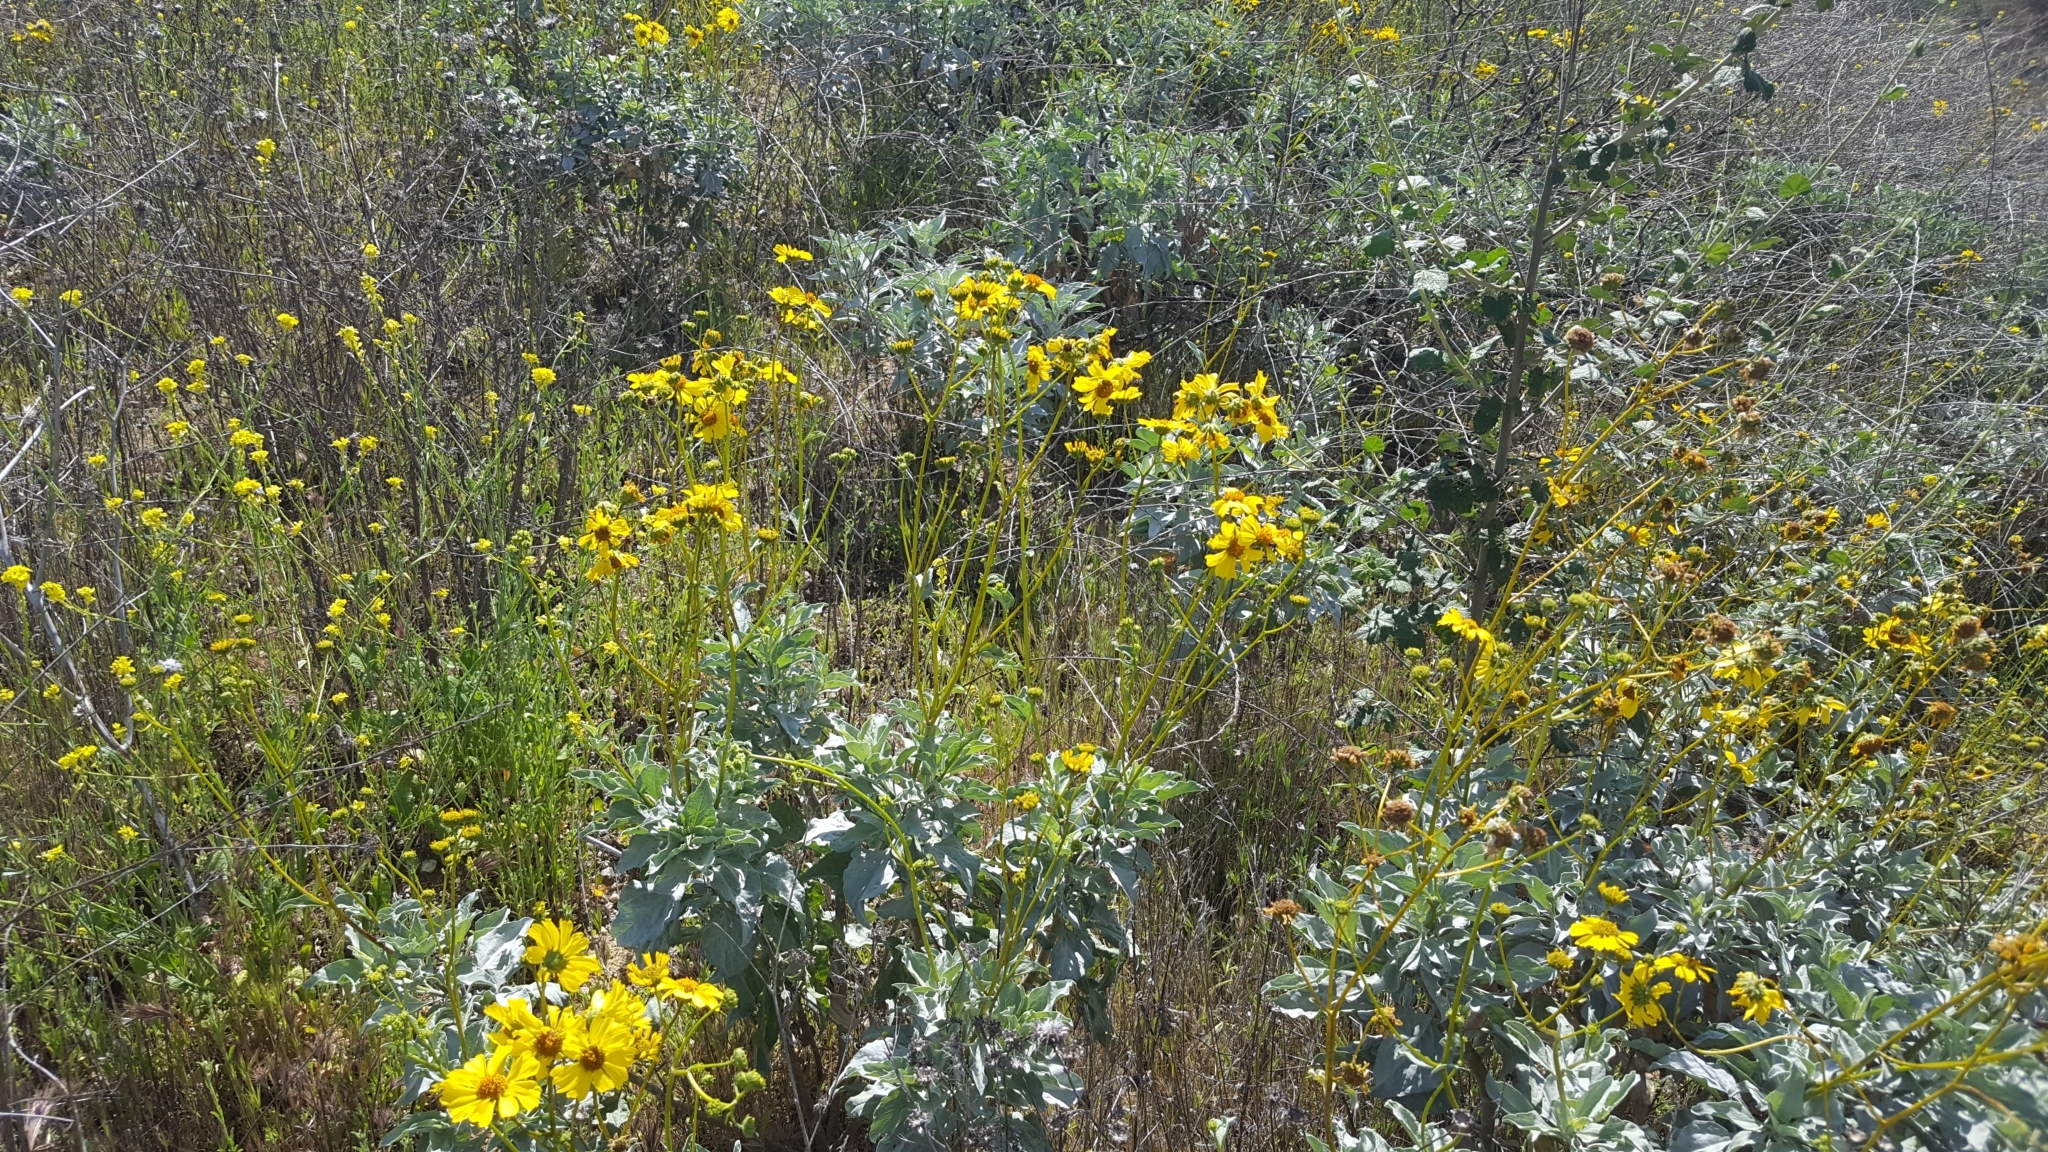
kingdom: Plantae
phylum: Tracheophyta
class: Magnoliopsida
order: Asterales
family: Asteraceae
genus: Encelia
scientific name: Encelia farinosa
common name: Brittlebush
